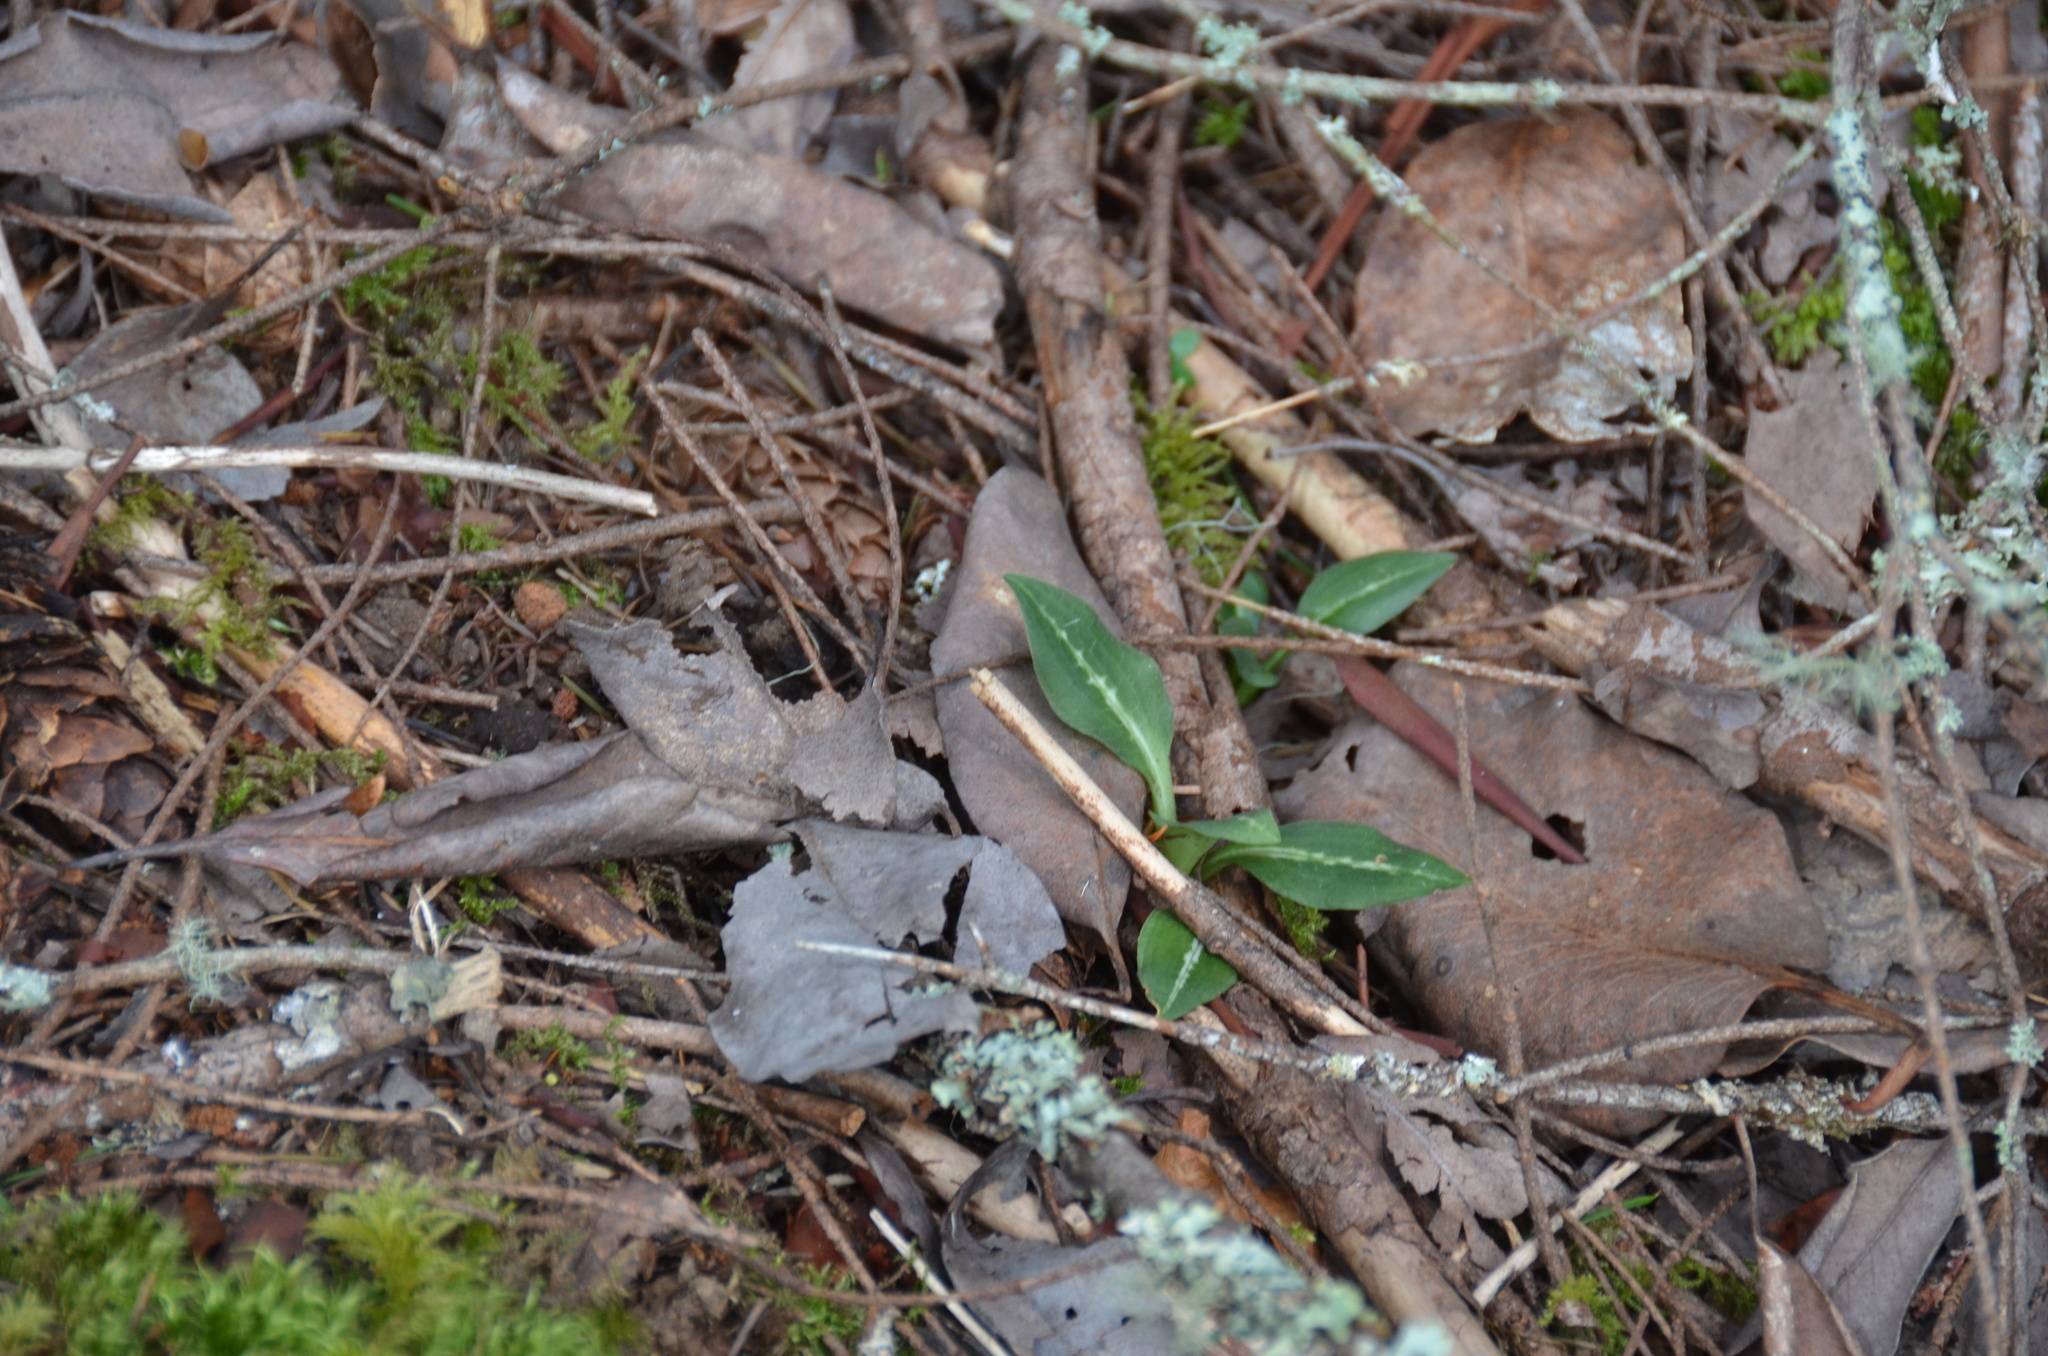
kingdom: Plantae
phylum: Tracheophyta
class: Liliopsida
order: Asparagales
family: Orchidaceae
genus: Goodyera
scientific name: Goodyera oblongifolia
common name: Giant rattlesnake-plantain
